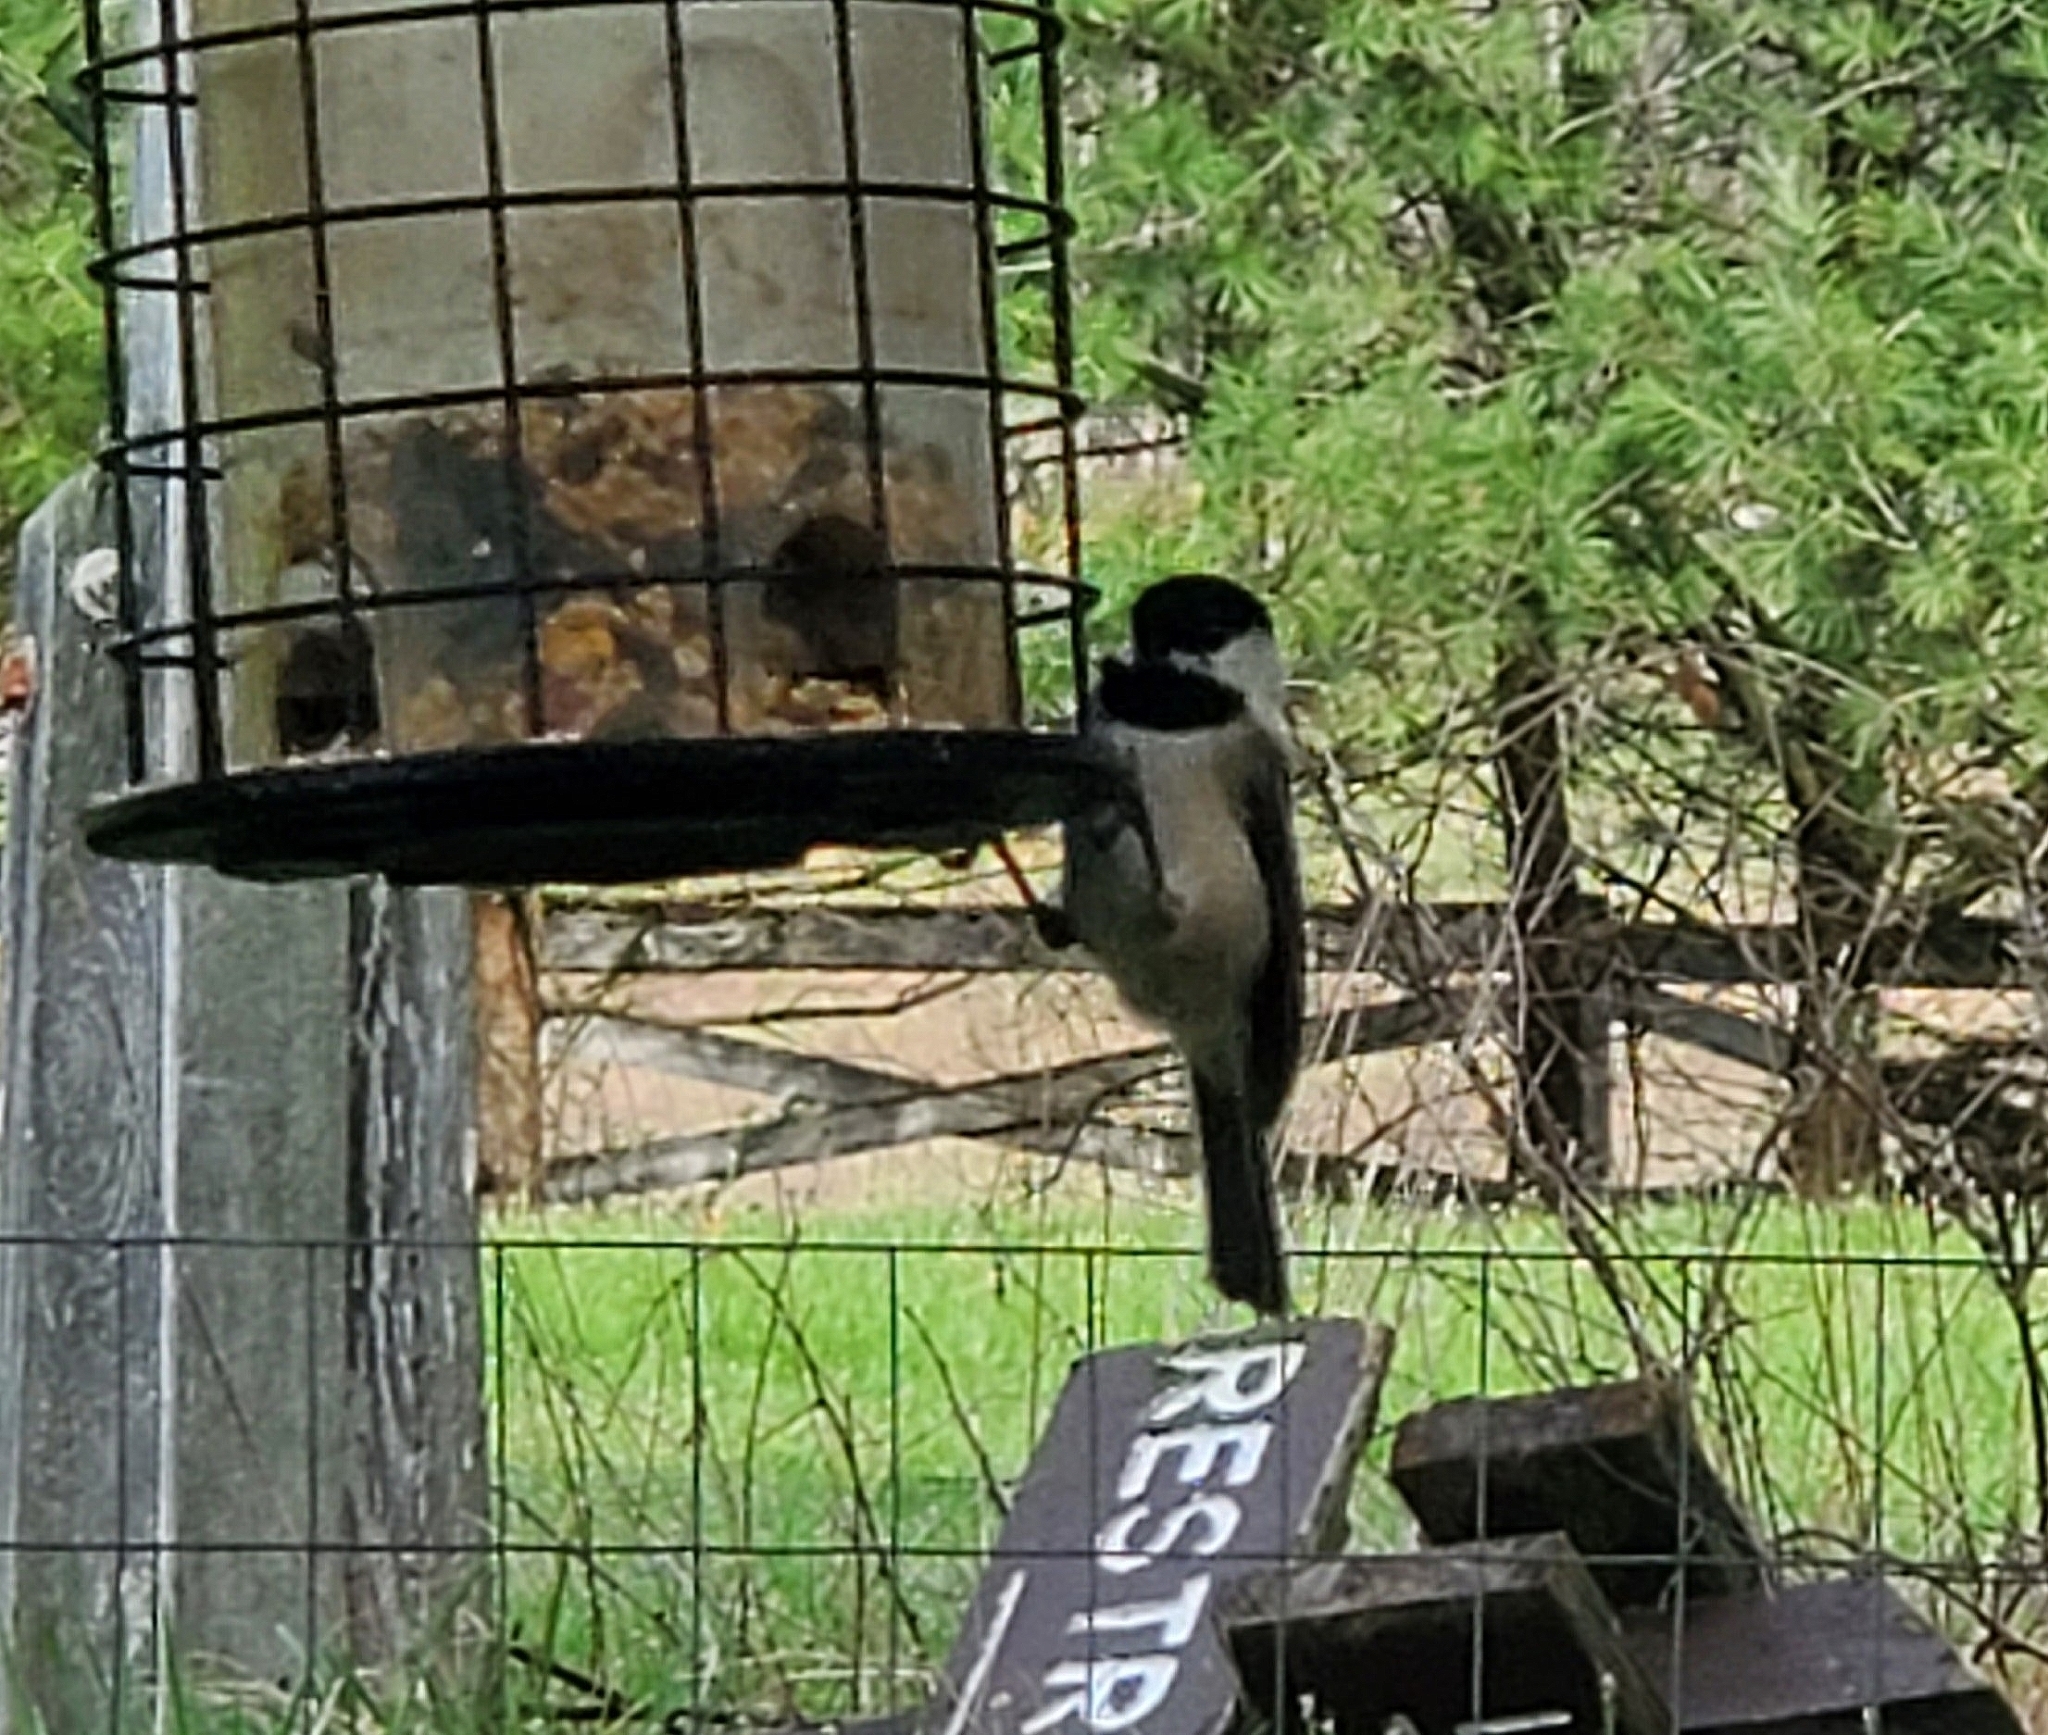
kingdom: Animalia
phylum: Chordata
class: Aves
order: Passeriformes
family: Paridae
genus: Poecile
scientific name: Poecile atricapillus
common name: Black-capped chickadee
